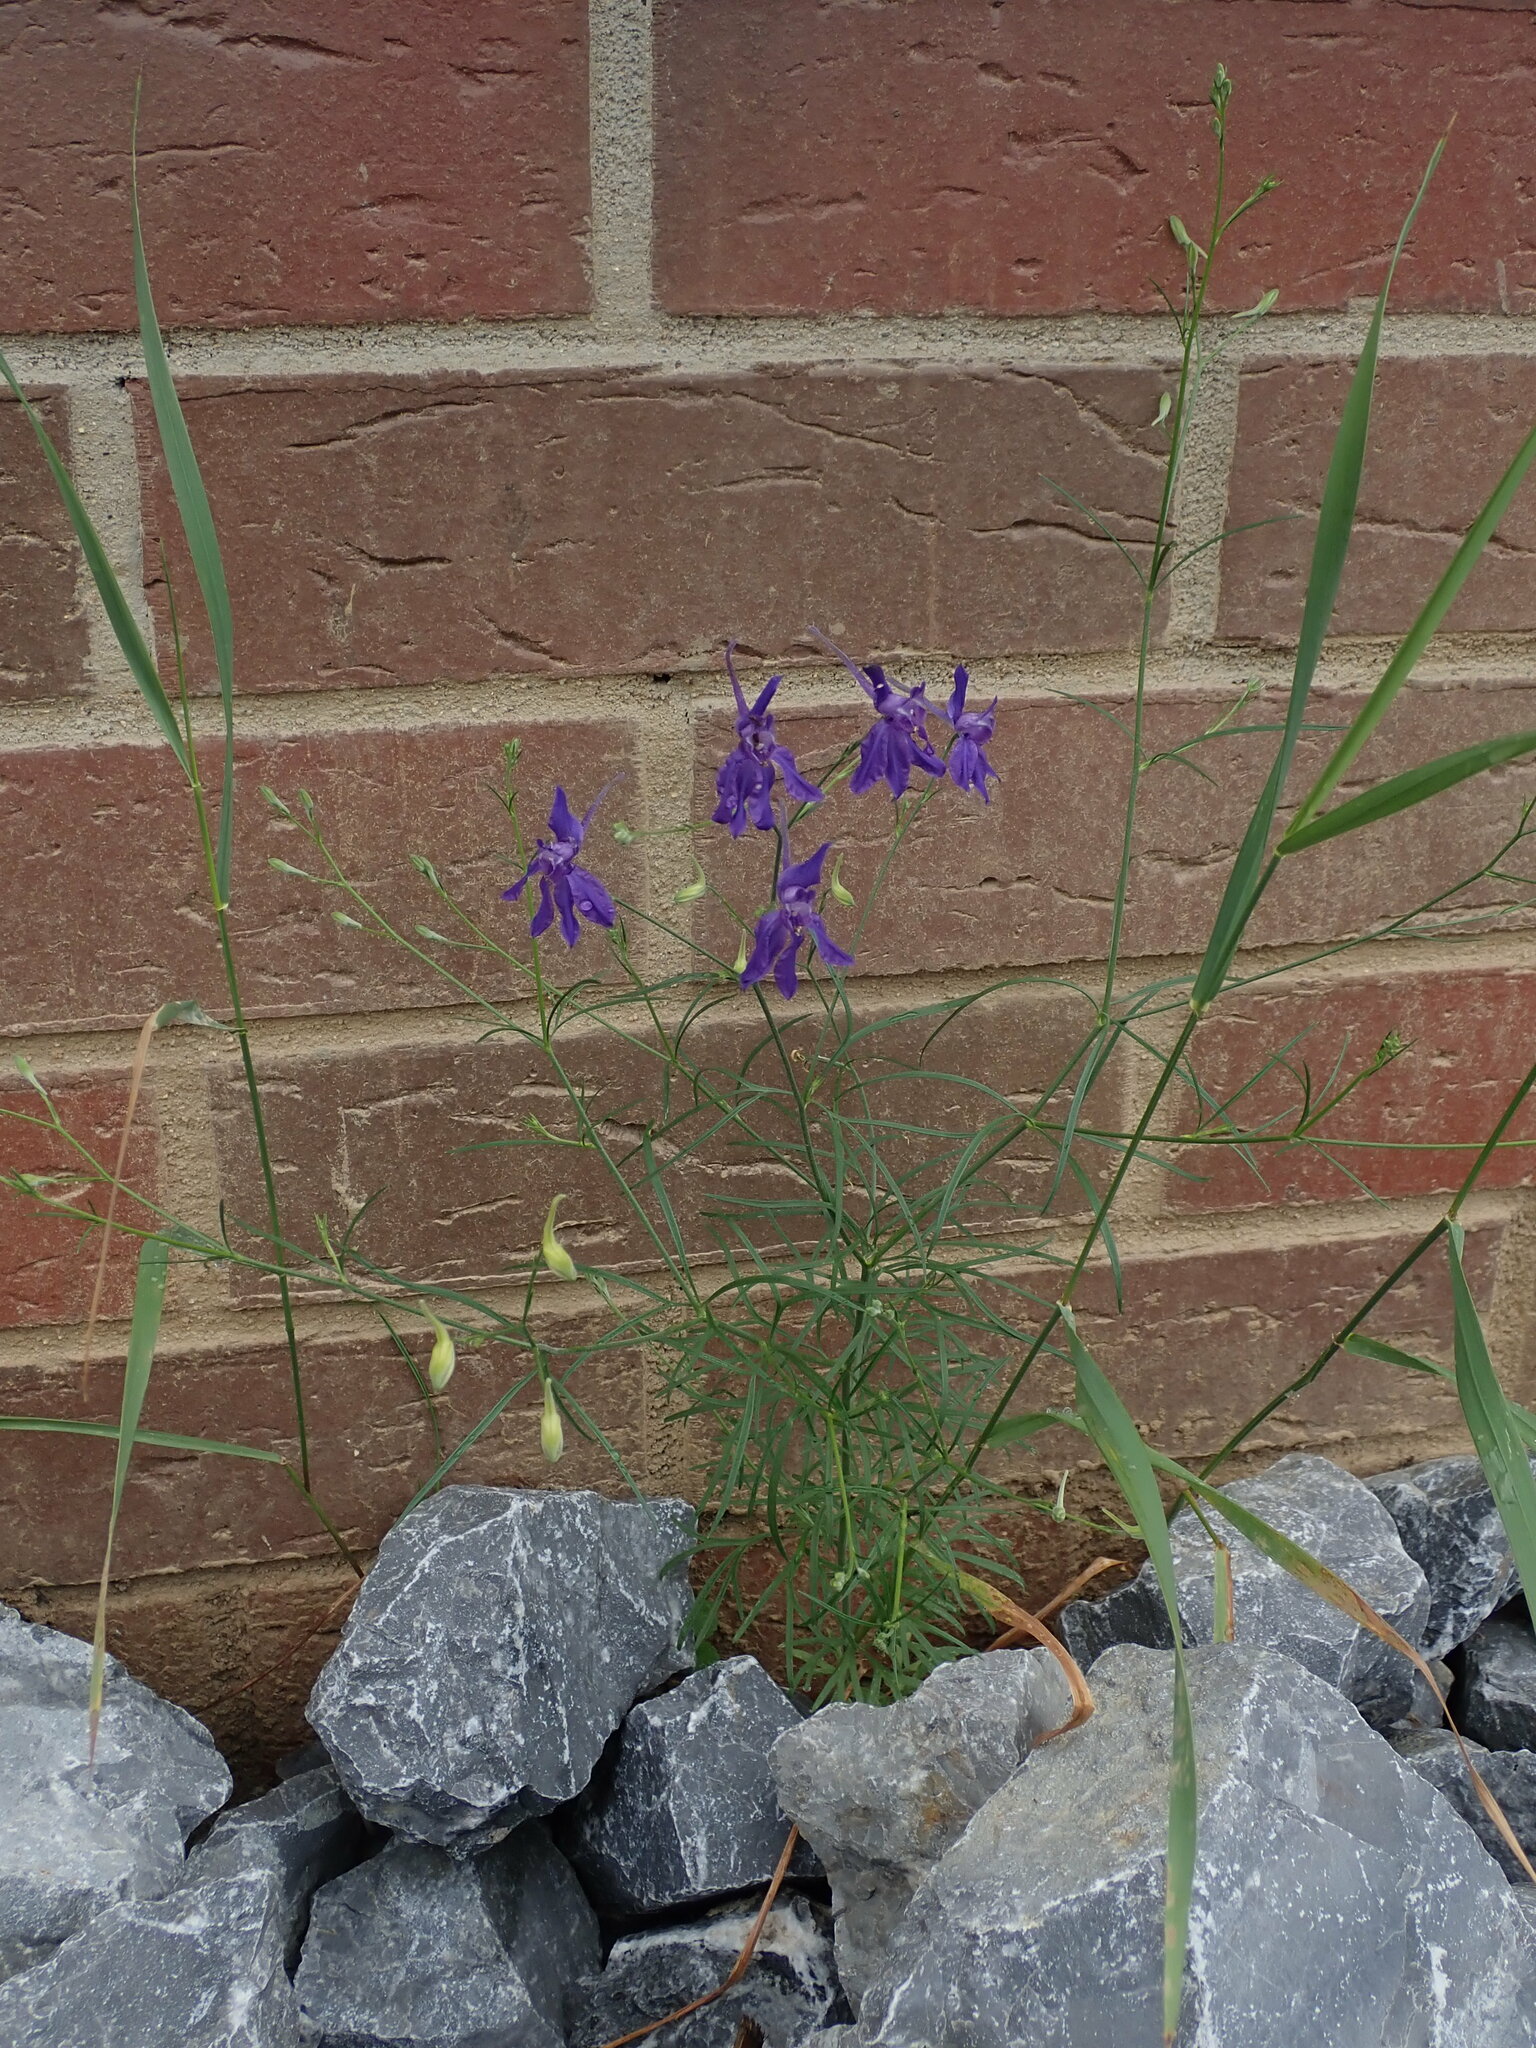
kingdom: Plantae
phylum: Tracheophyta
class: Magnoliopsida
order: Ranunculales
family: Ranunculaceae
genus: Delphinium
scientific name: Delphinium consolida
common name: Branching larkspur
